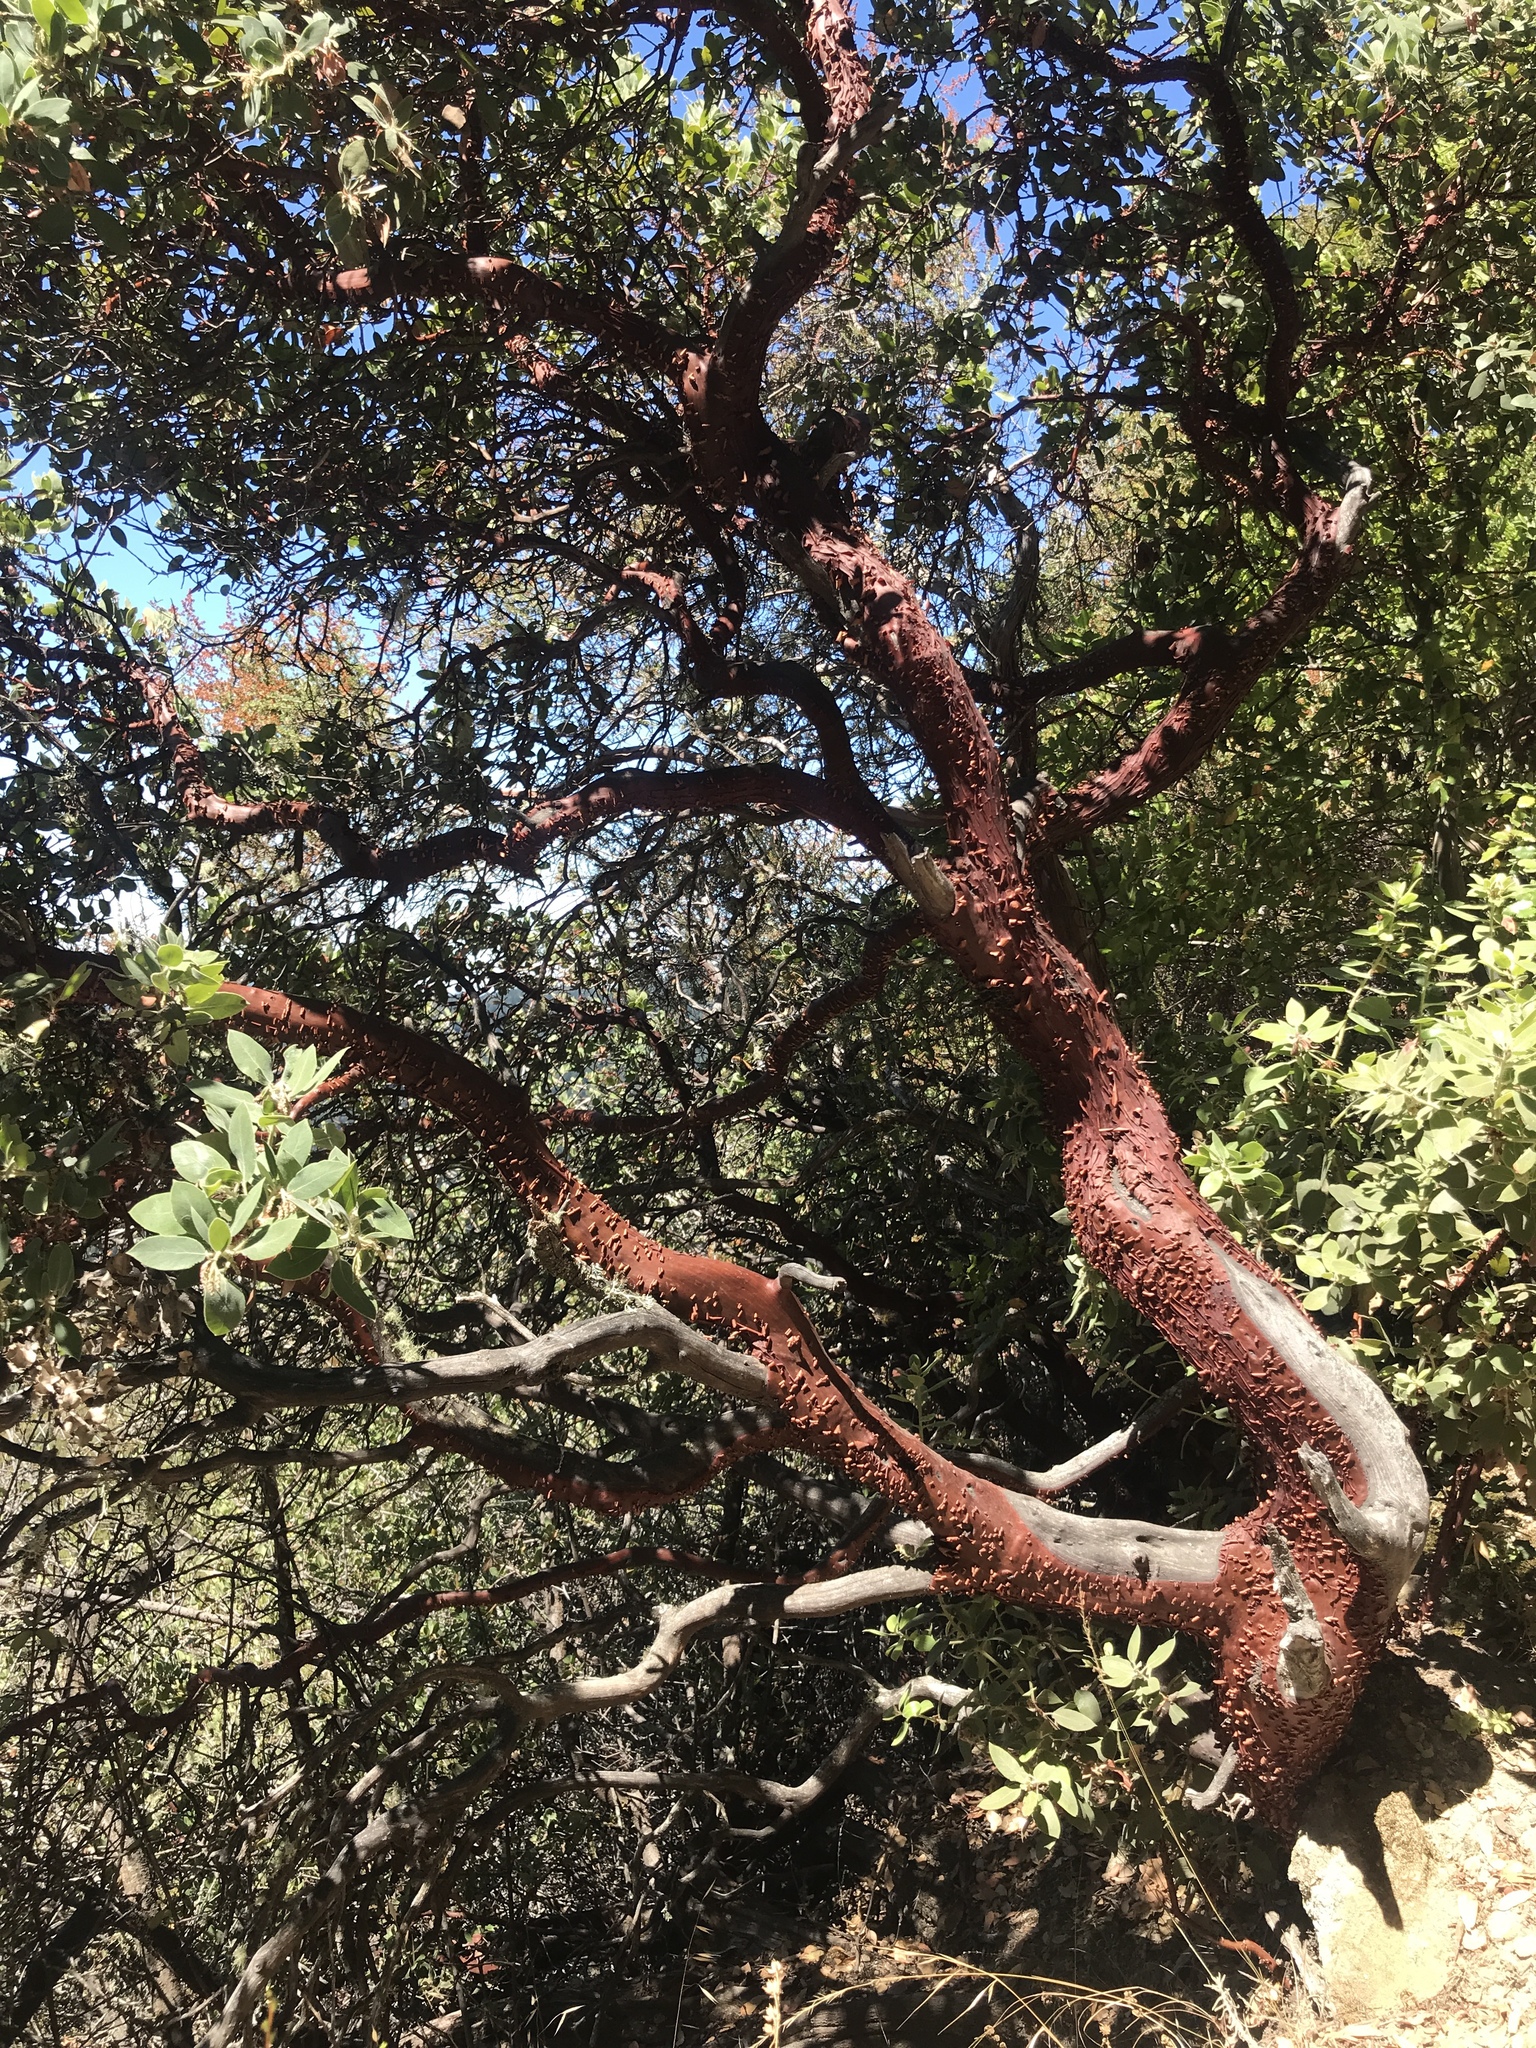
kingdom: Plantae
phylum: Tracheophyta
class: Magnoliopsida
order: Ericales
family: Ericaceae
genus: Arctostaphylos
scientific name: Arctostaphylos crustacea
